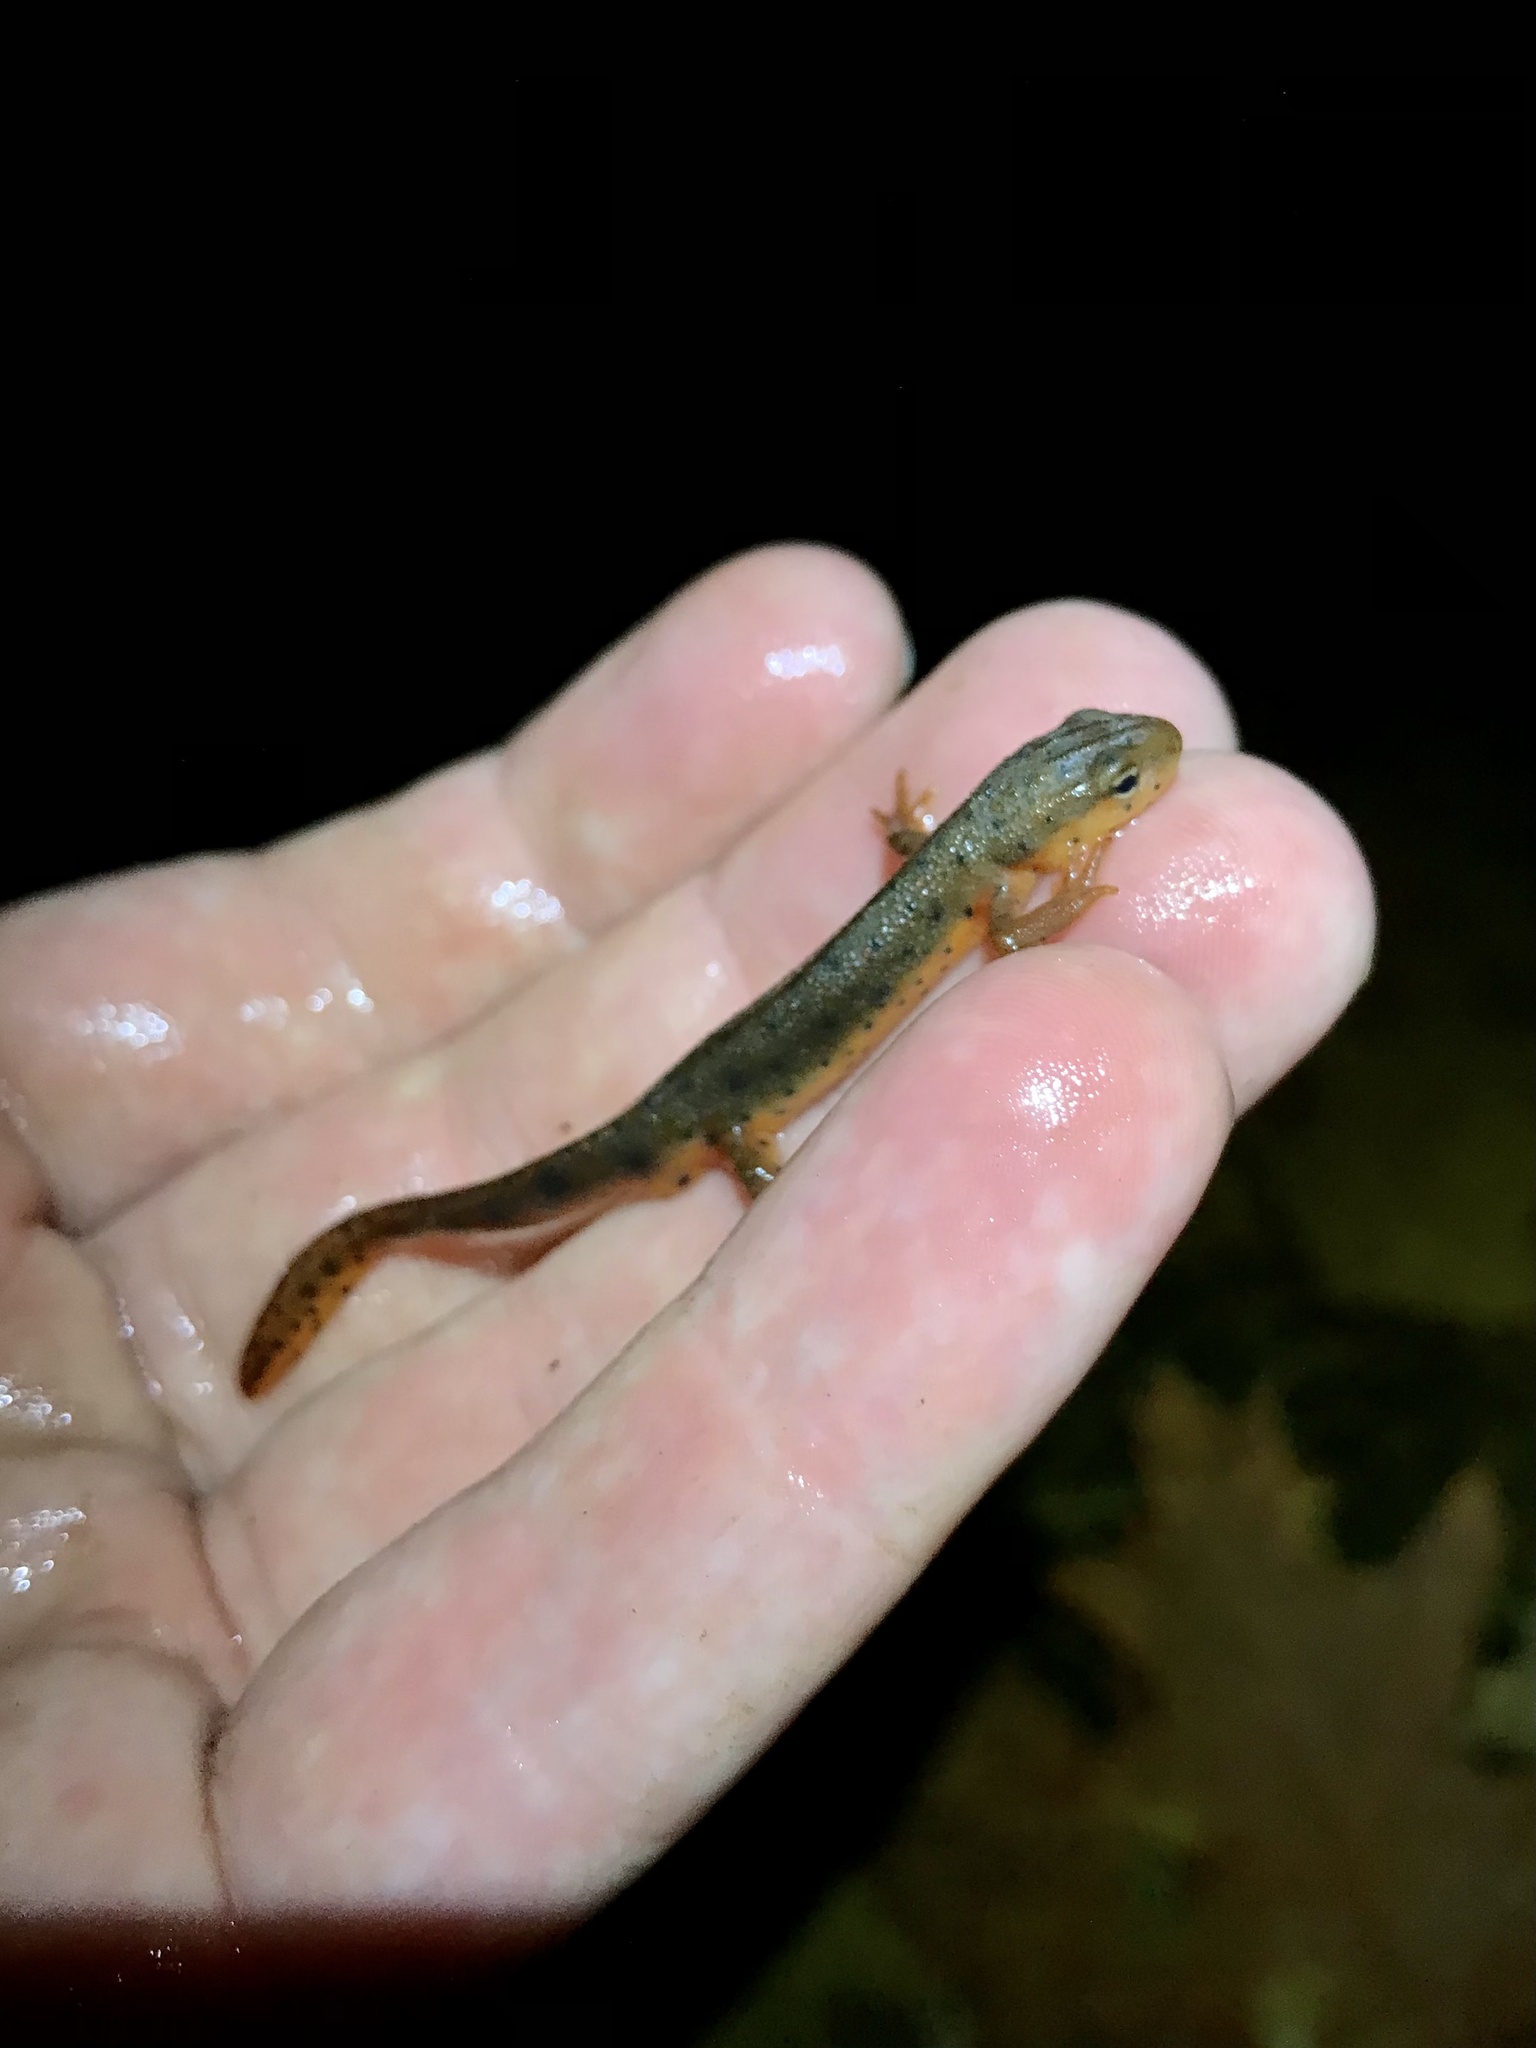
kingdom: Animalia
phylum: Chordata
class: Amphibia
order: Caudata
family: Salamandridae
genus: Notophthalmus
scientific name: Notophthalmus viridescens
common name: Eastern newt
